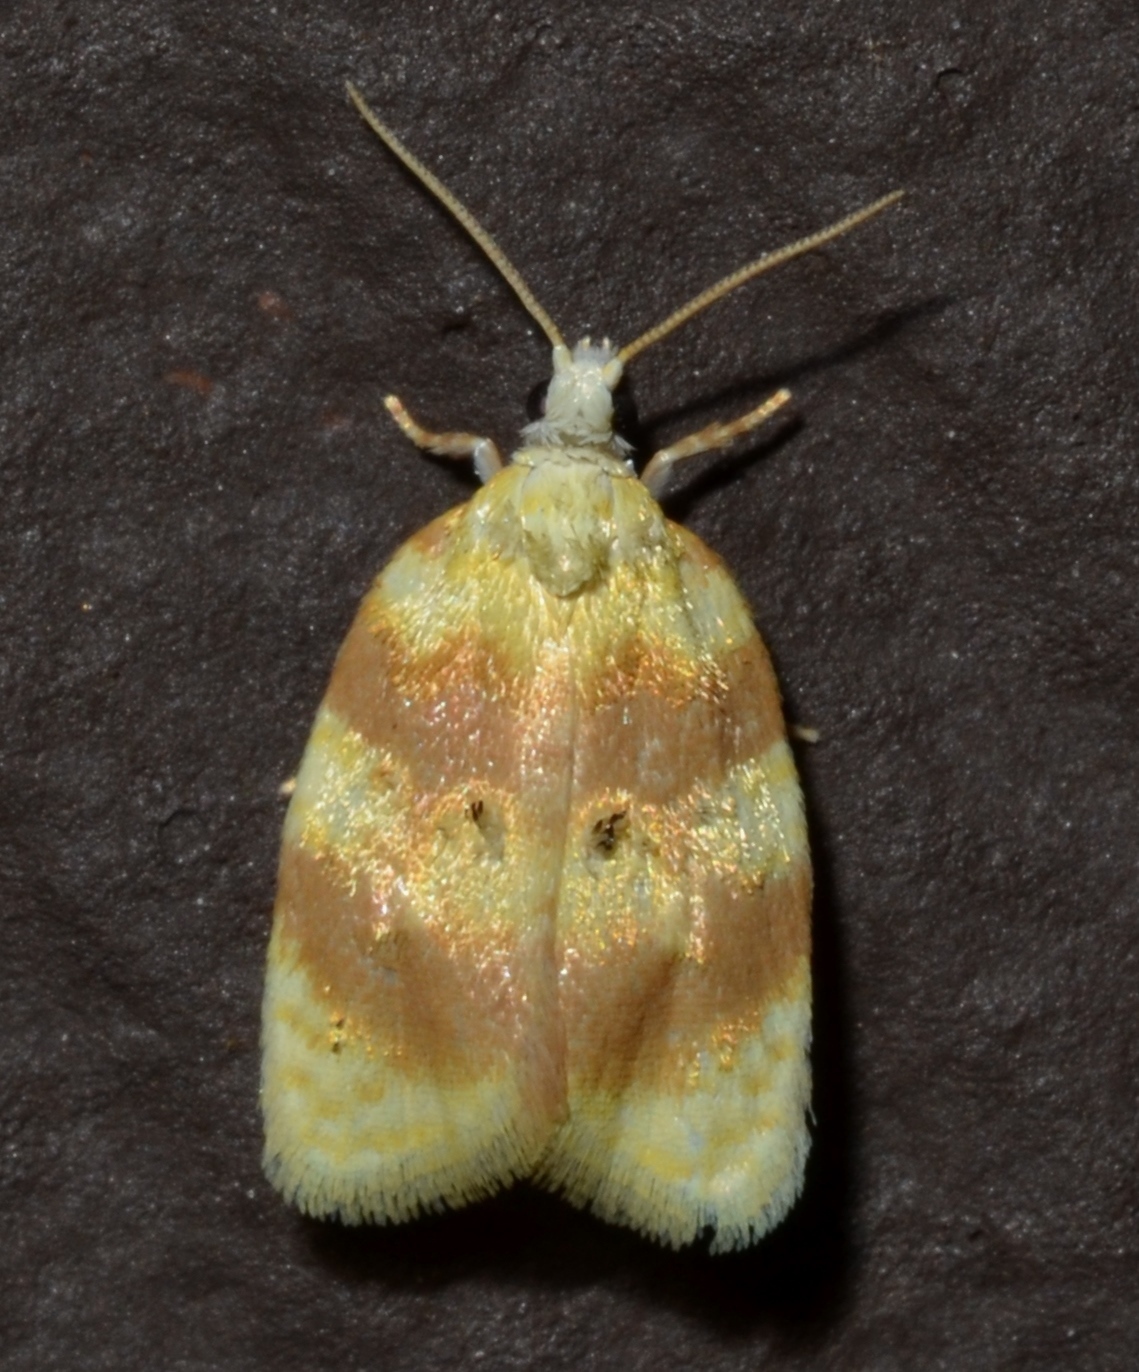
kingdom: Animalia
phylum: Arthropoda
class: Insecta
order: Lepidoptera
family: Tortricidae
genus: Acleris
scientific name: Acleris semipurpurana
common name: Oak leaftier moth
